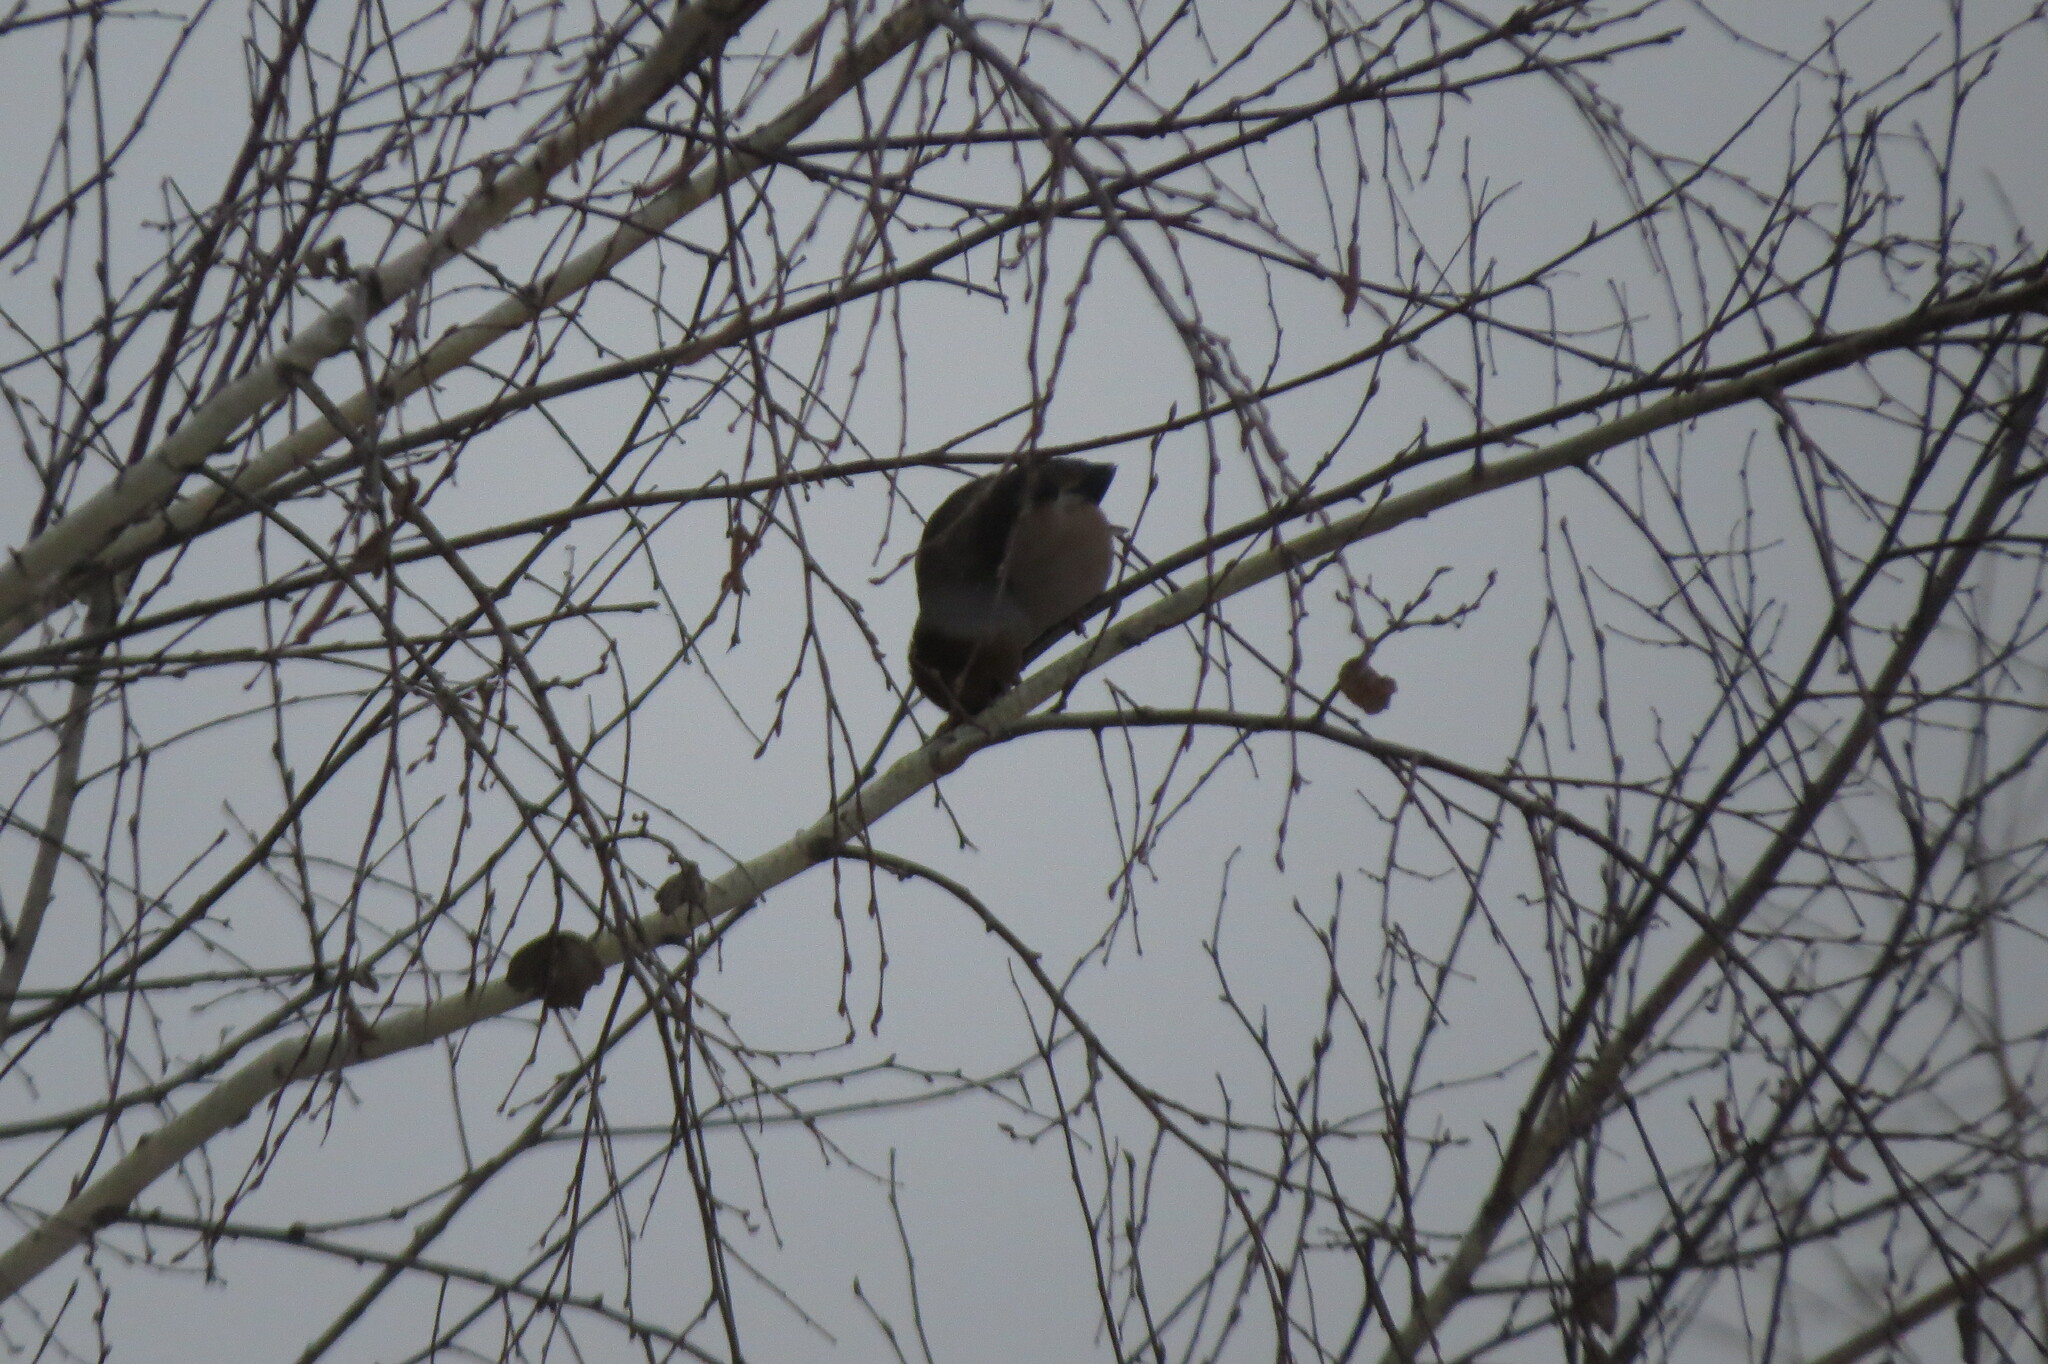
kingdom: Animalia
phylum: Chordata
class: Aves
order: Passeriformes
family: Fringillidae
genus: Coccothraustes
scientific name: Coccothraustes coccothraustes
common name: Hawfinch
